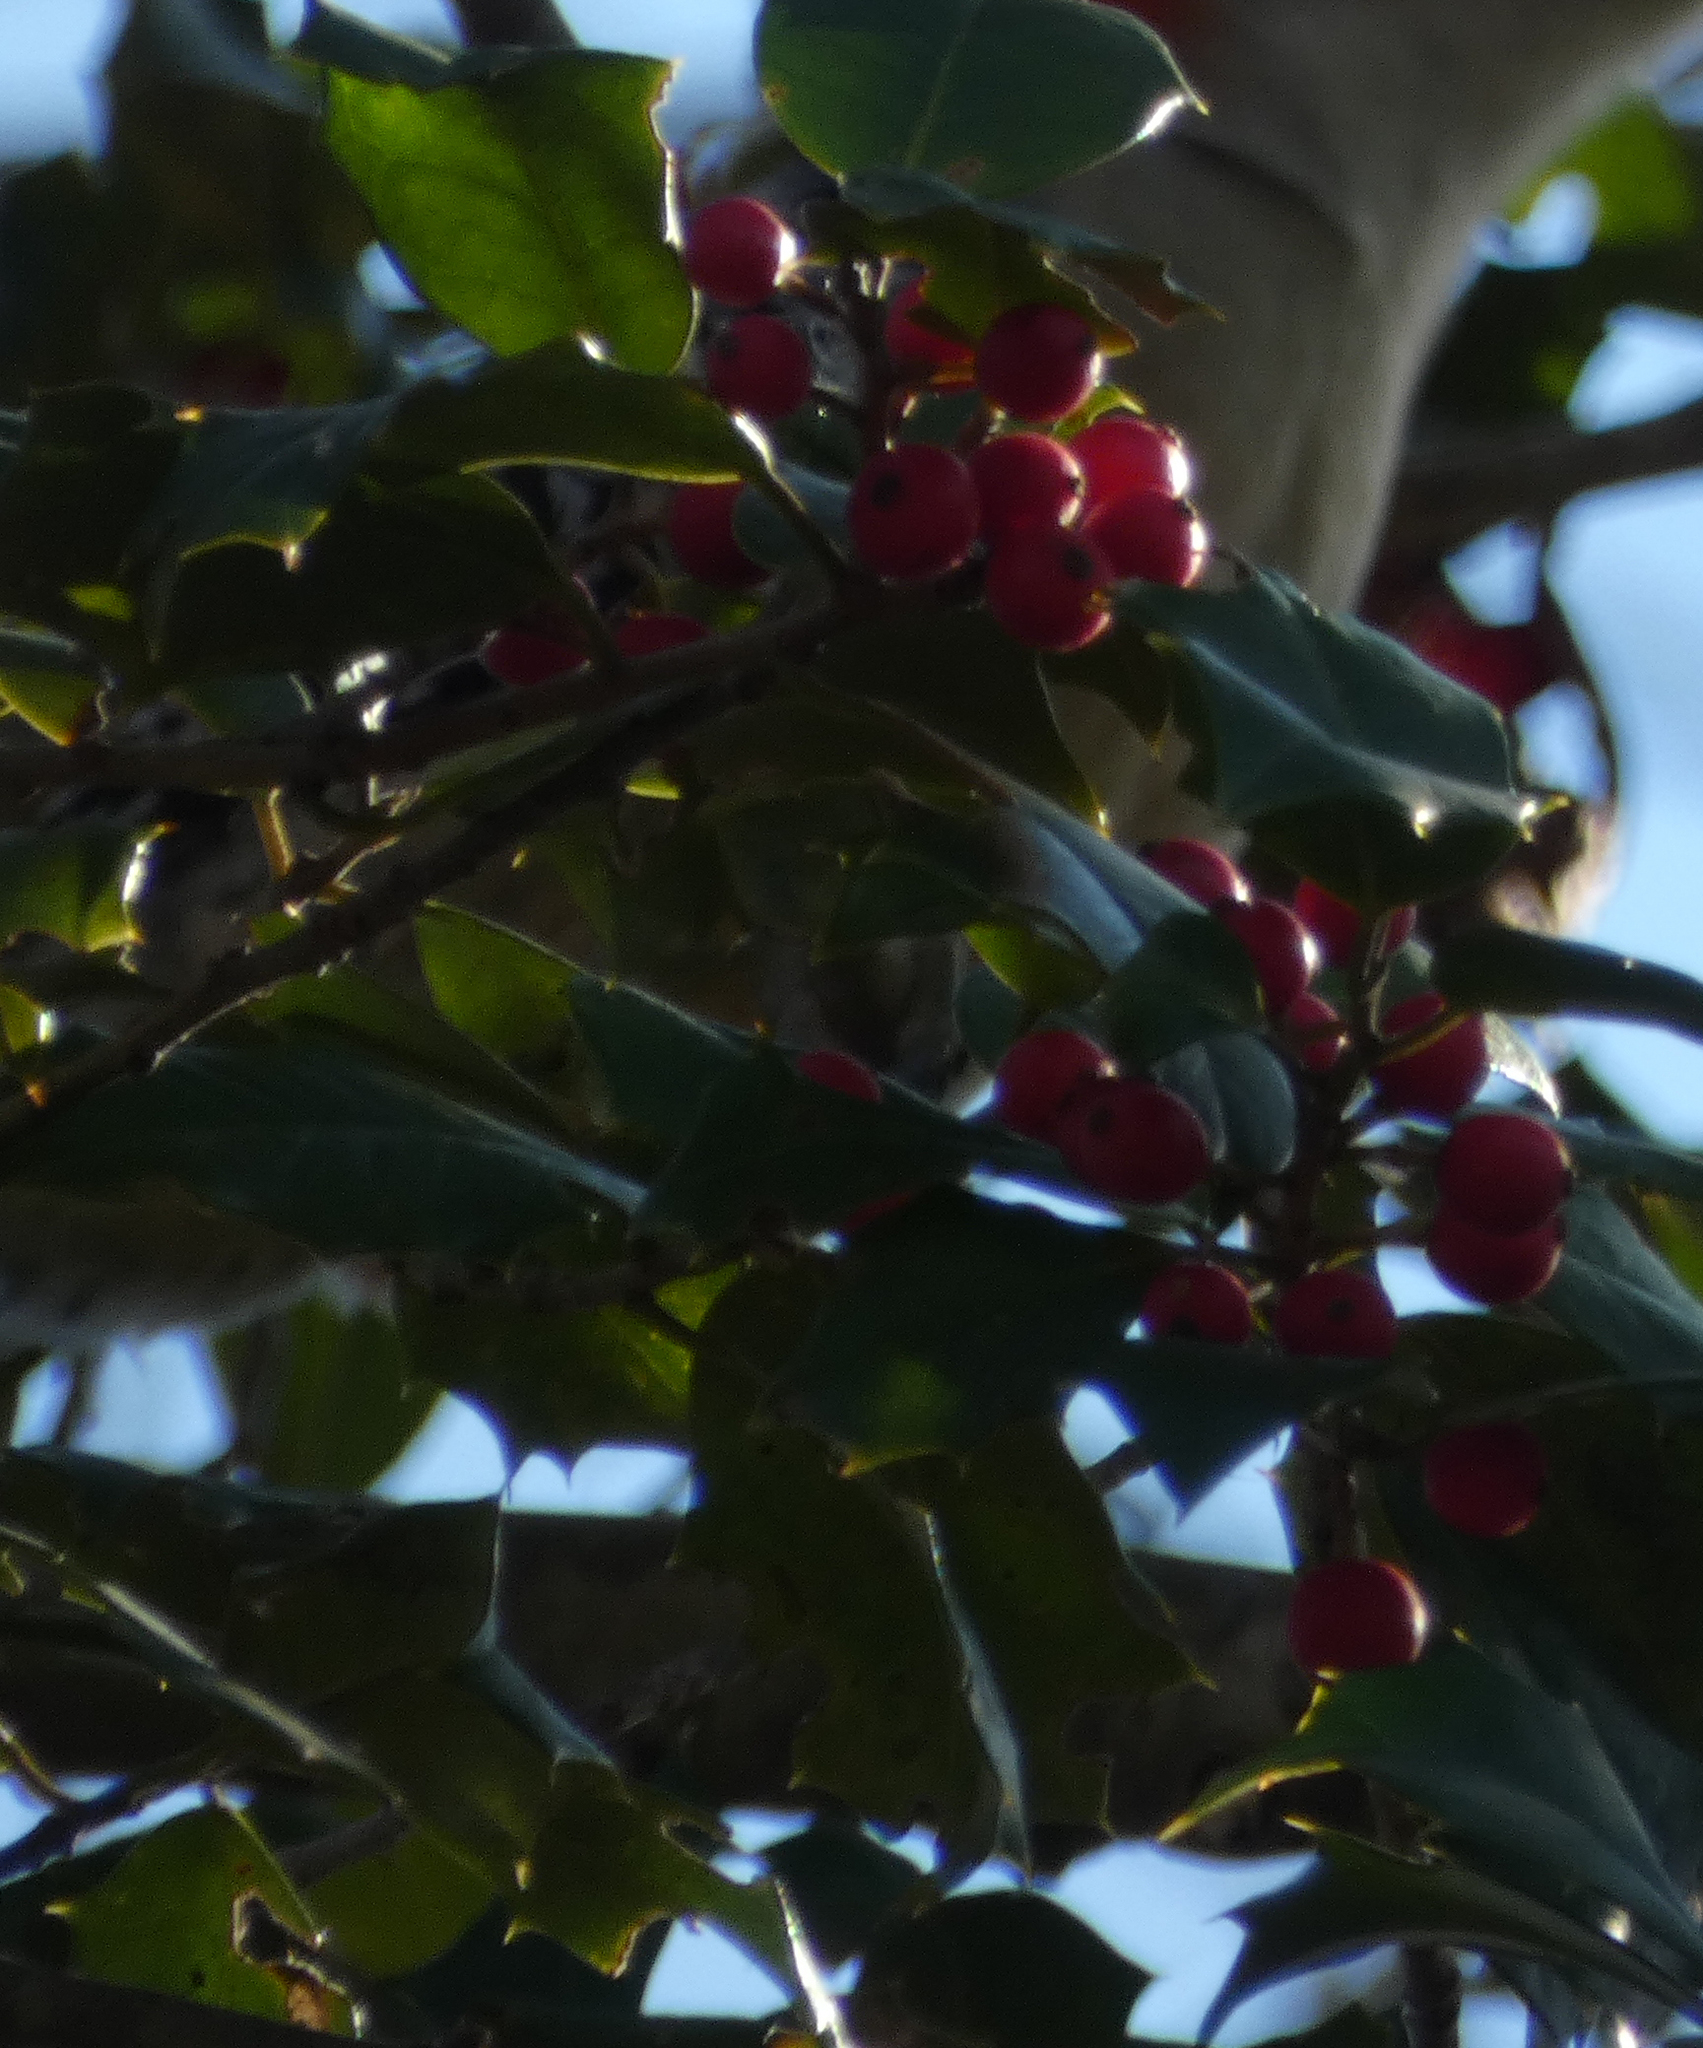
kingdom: Plantae
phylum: Tracheophyta
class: Magnoliopsida
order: Aquifoliales
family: Aquifoliaceae
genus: Ilex
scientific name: Ilex opaca
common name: American holly
